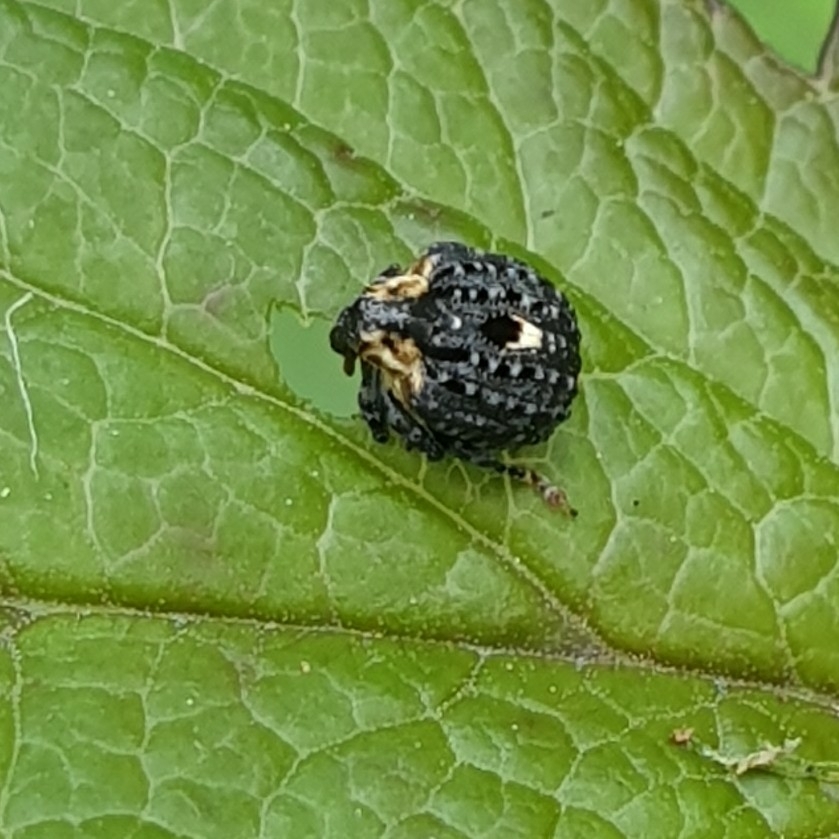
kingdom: Animalia
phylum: Arthropoda
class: Insecta
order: Coleoptera
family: Curculionidae
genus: Cionus
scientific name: Cionus tuberculosus
